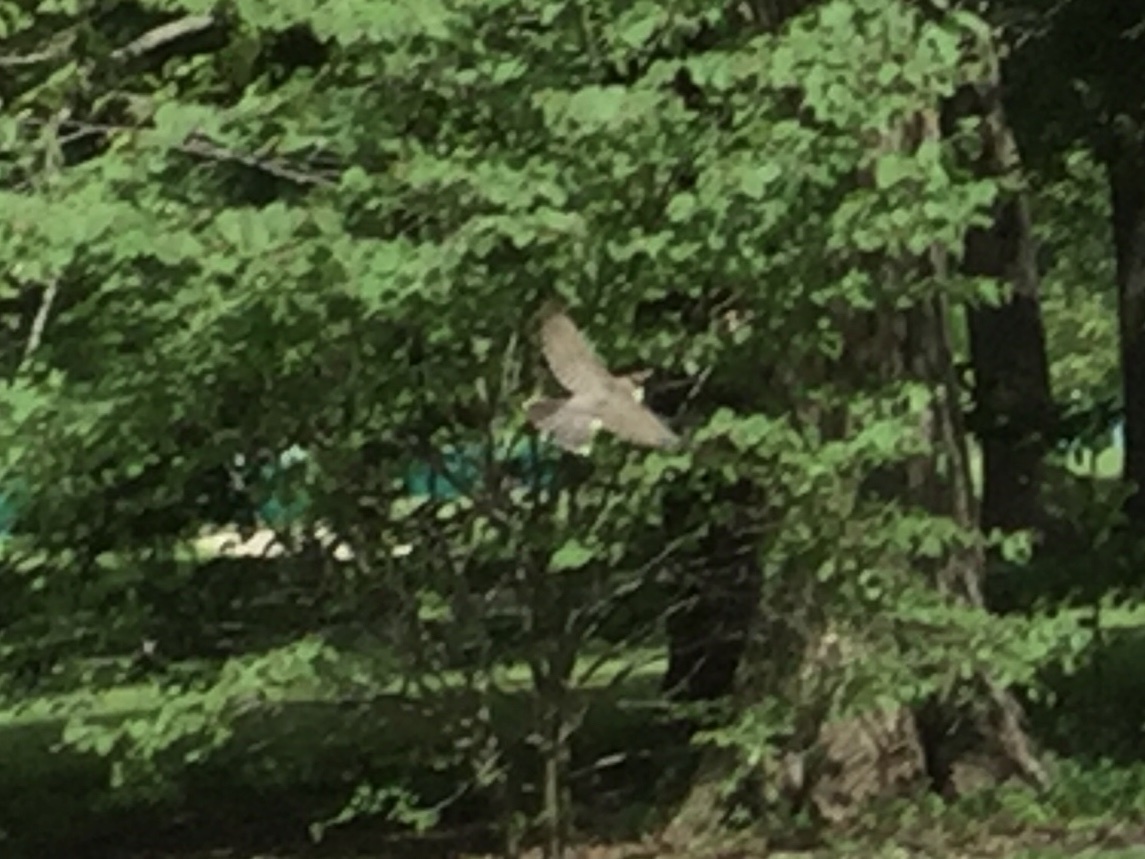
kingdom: Animalia
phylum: Chordata
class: Aves
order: Passeriformes
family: Turdidae
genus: Turdus
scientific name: Turdus migratorius
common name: American robin
